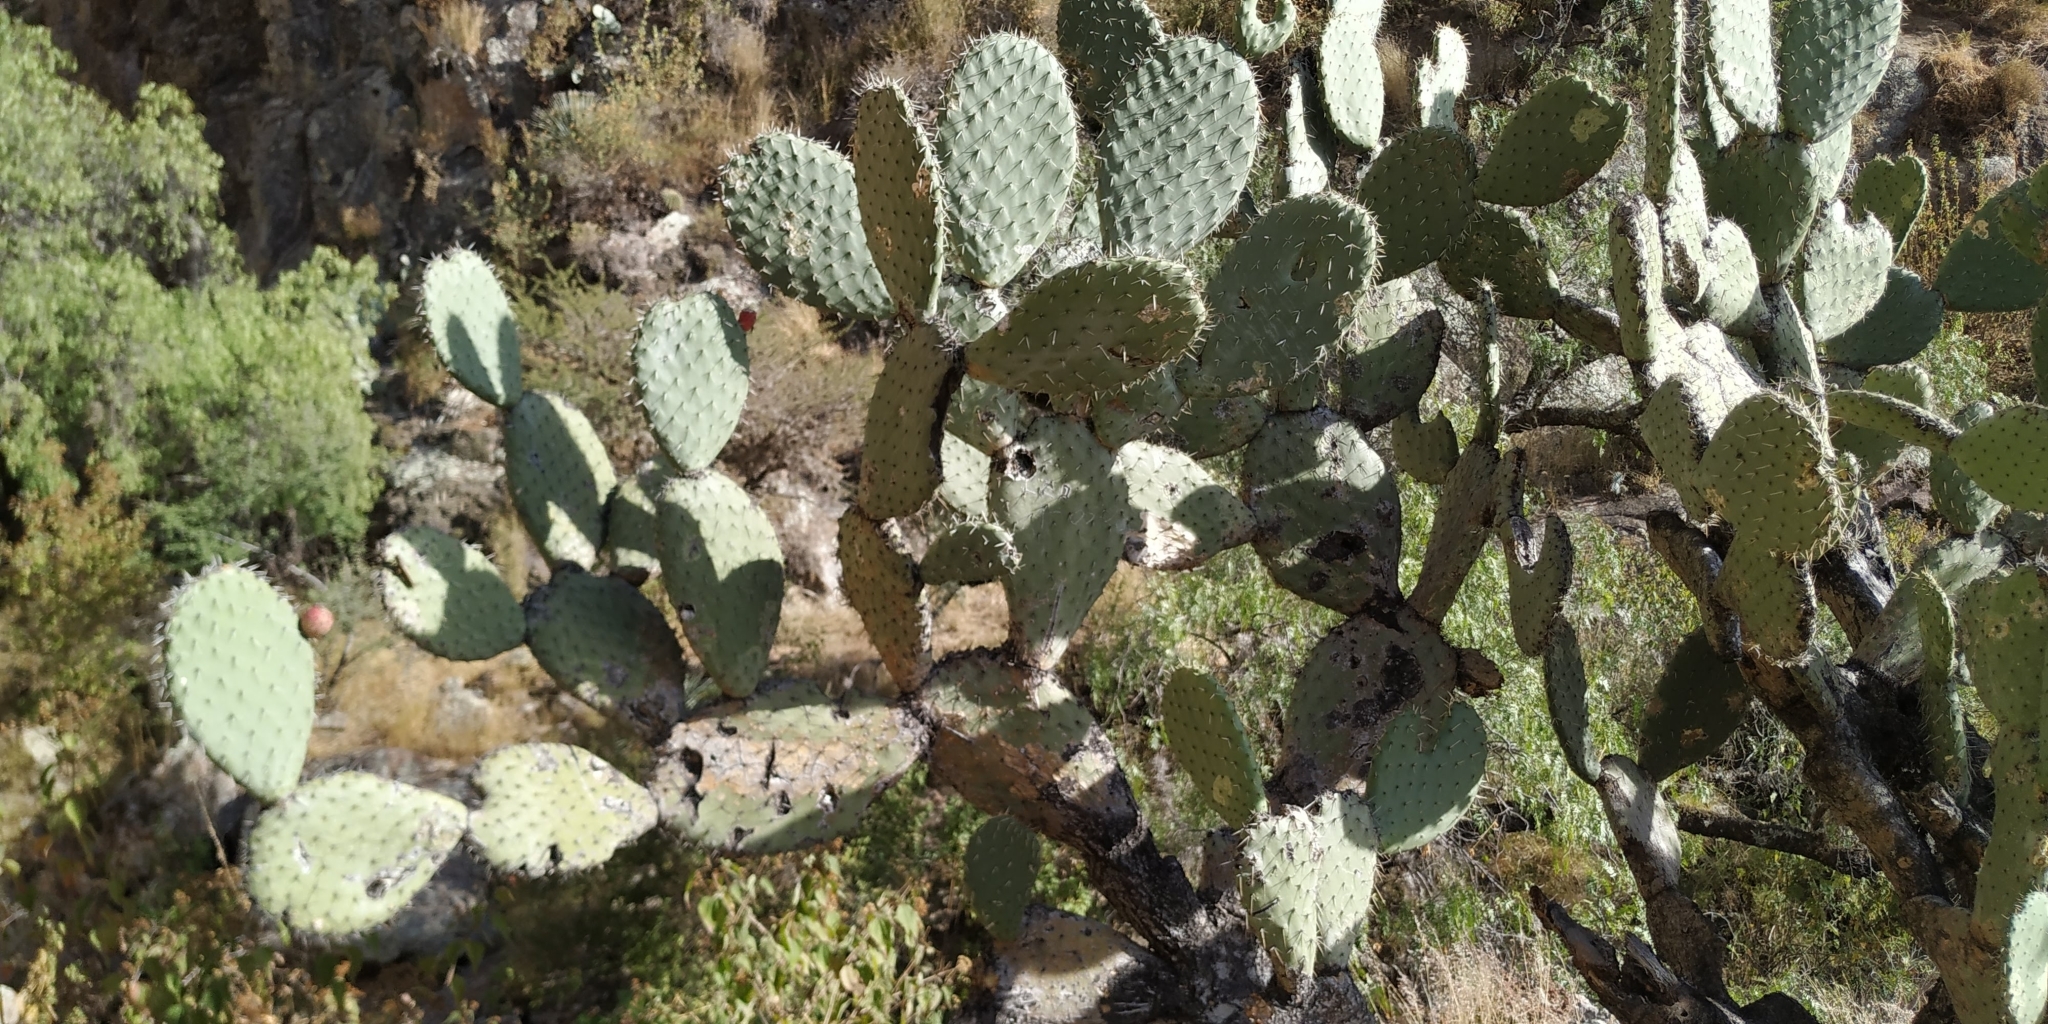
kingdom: Plantae
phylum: Tracheophyta
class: Magnoliopsida
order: Caryophyllales
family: Cactaceae
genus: Opuntia
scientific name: Opuntia hyptiacantha
